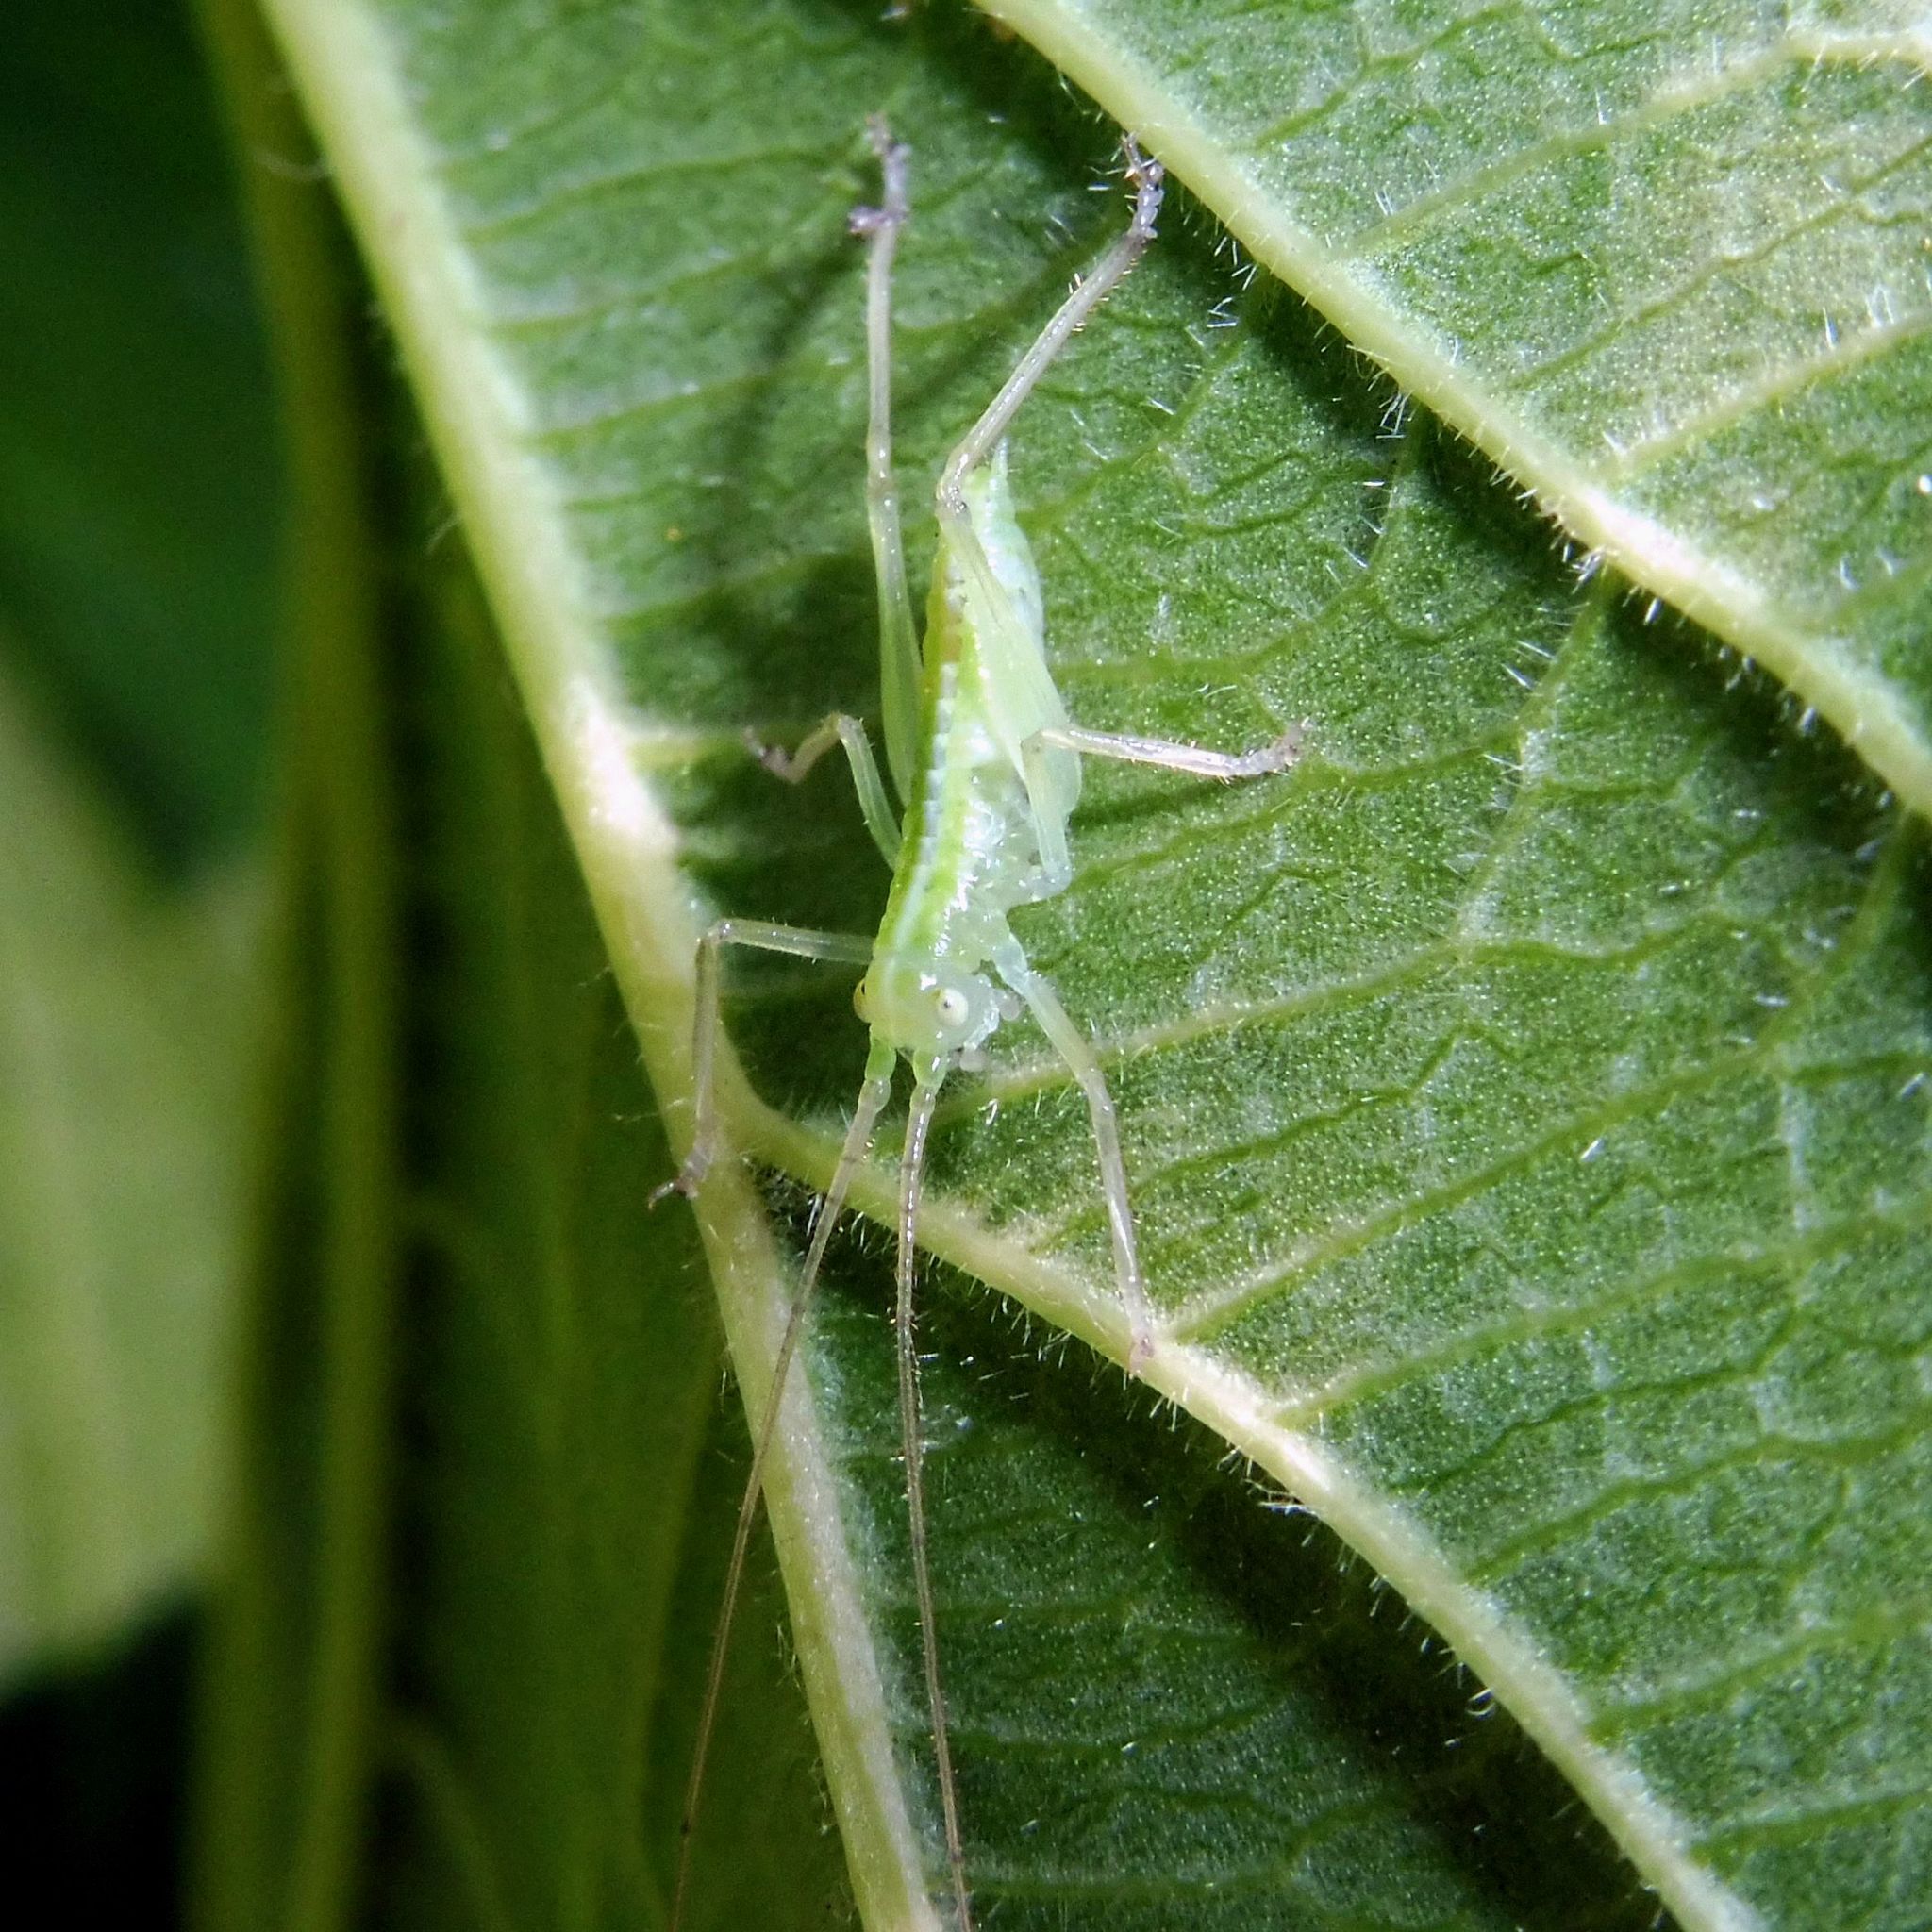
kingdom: Animalia
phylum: Arthropoda
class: Insecta
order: Orthoptera
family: Tettigoniidae
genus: Meconema
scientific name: Meconema
